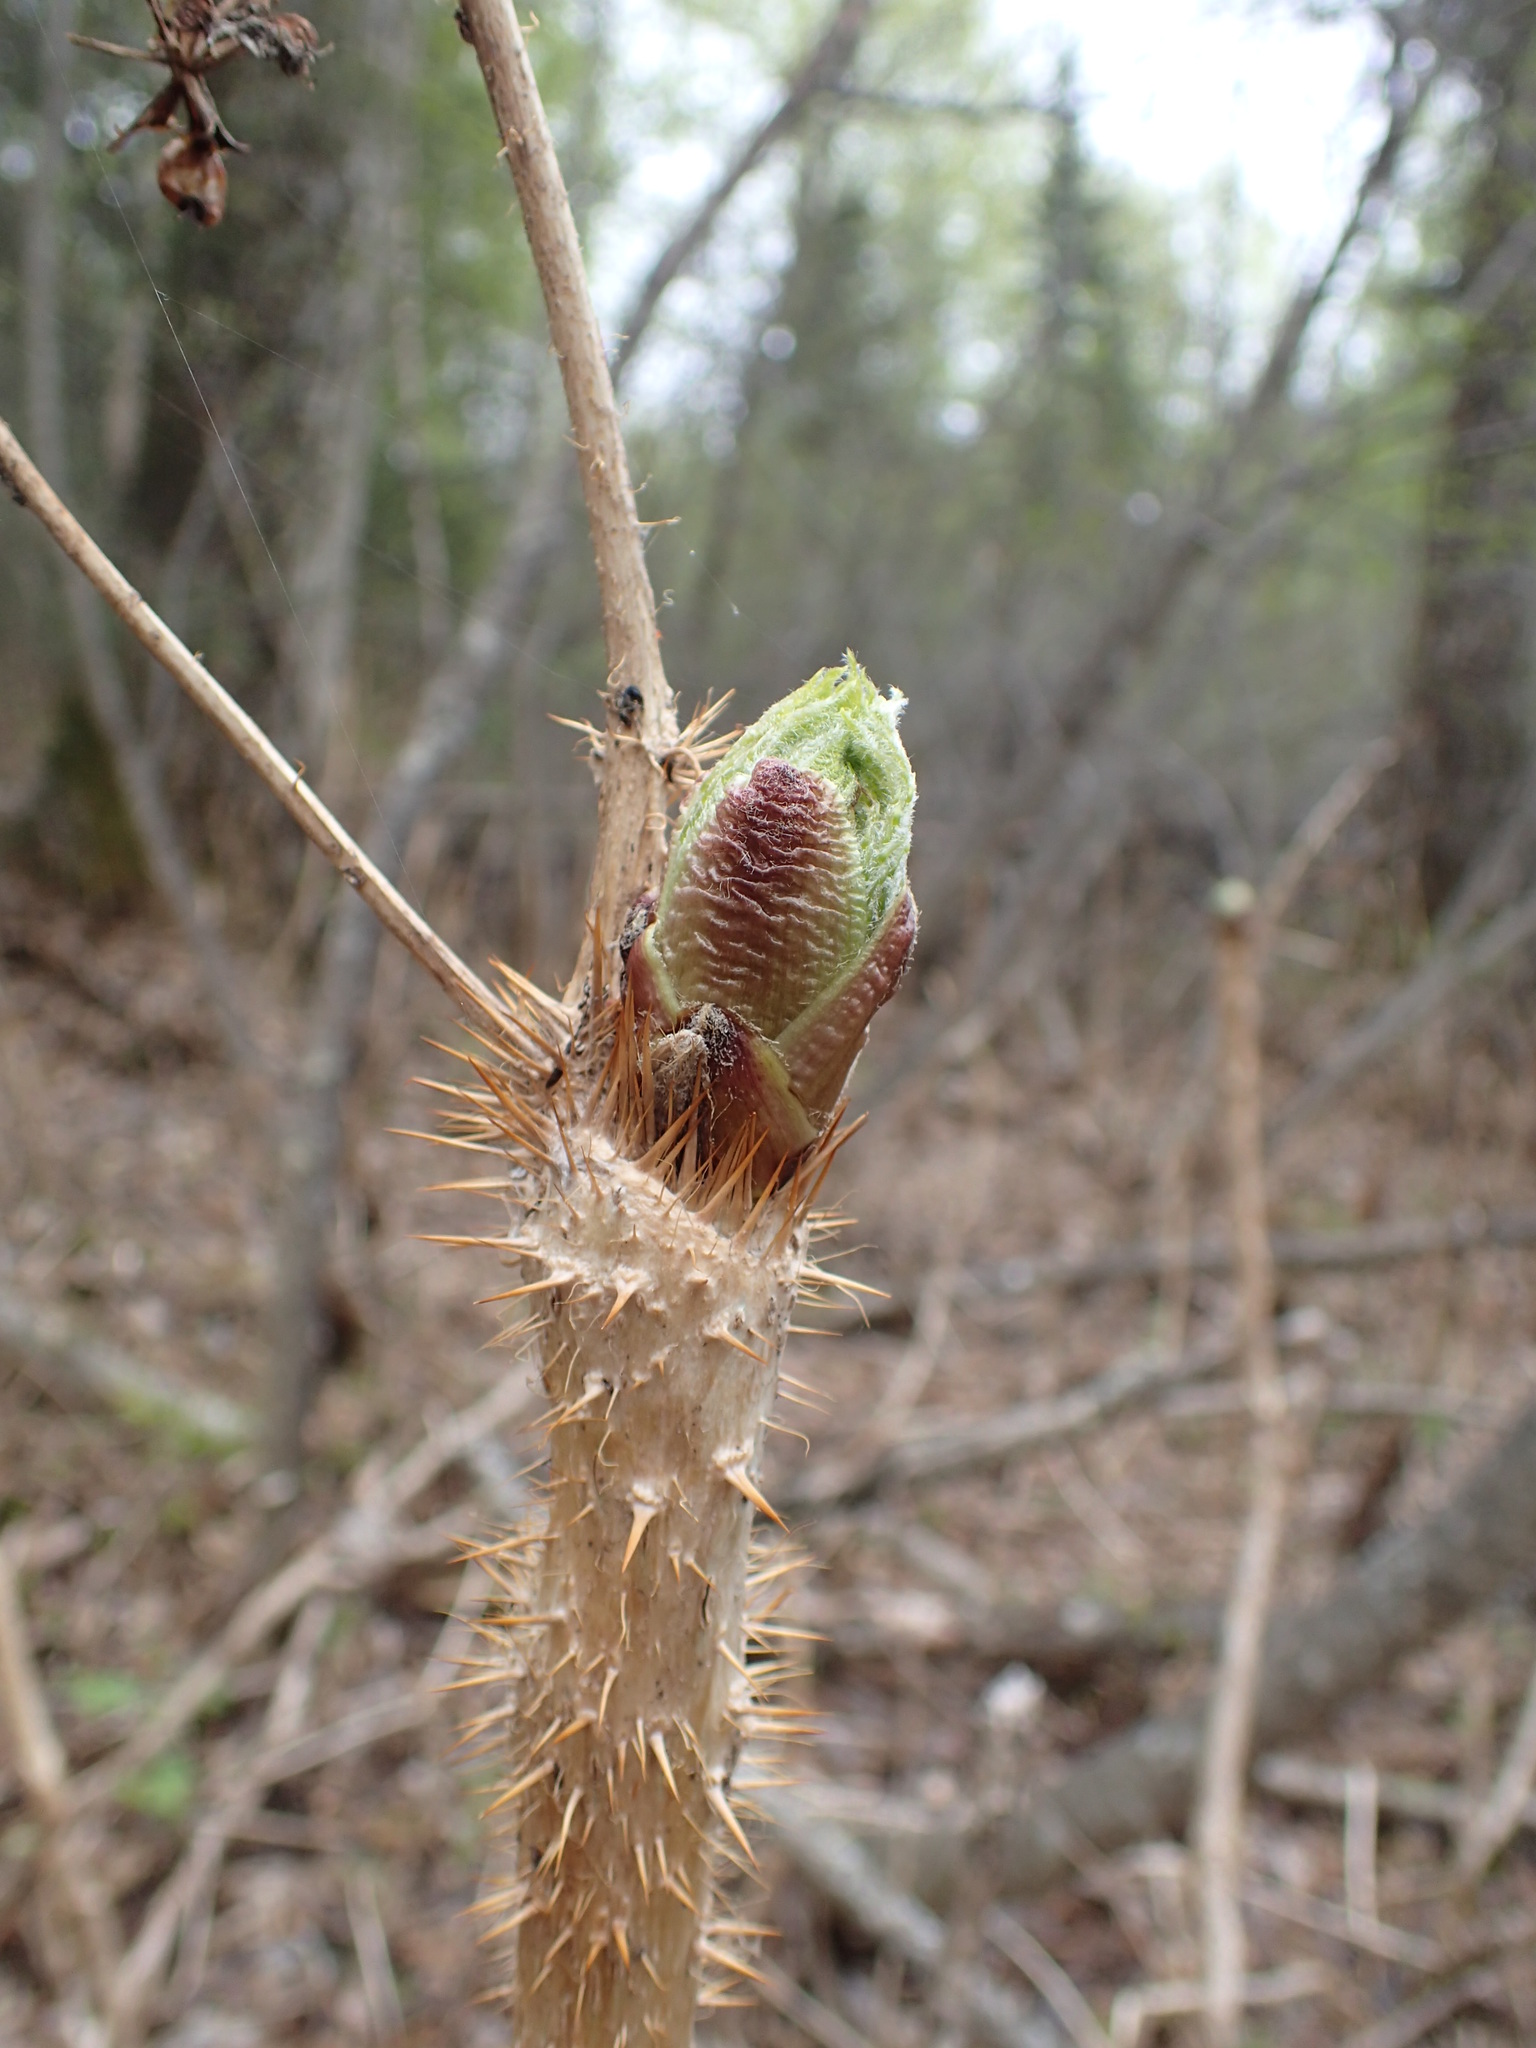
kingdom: Plantae
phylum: Tracheophyta
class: Magnoliopsida
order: Apiales
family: Araliaceae
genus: Oplopanax
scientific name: Oplopanax horridus
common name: Devil's walking-stick
